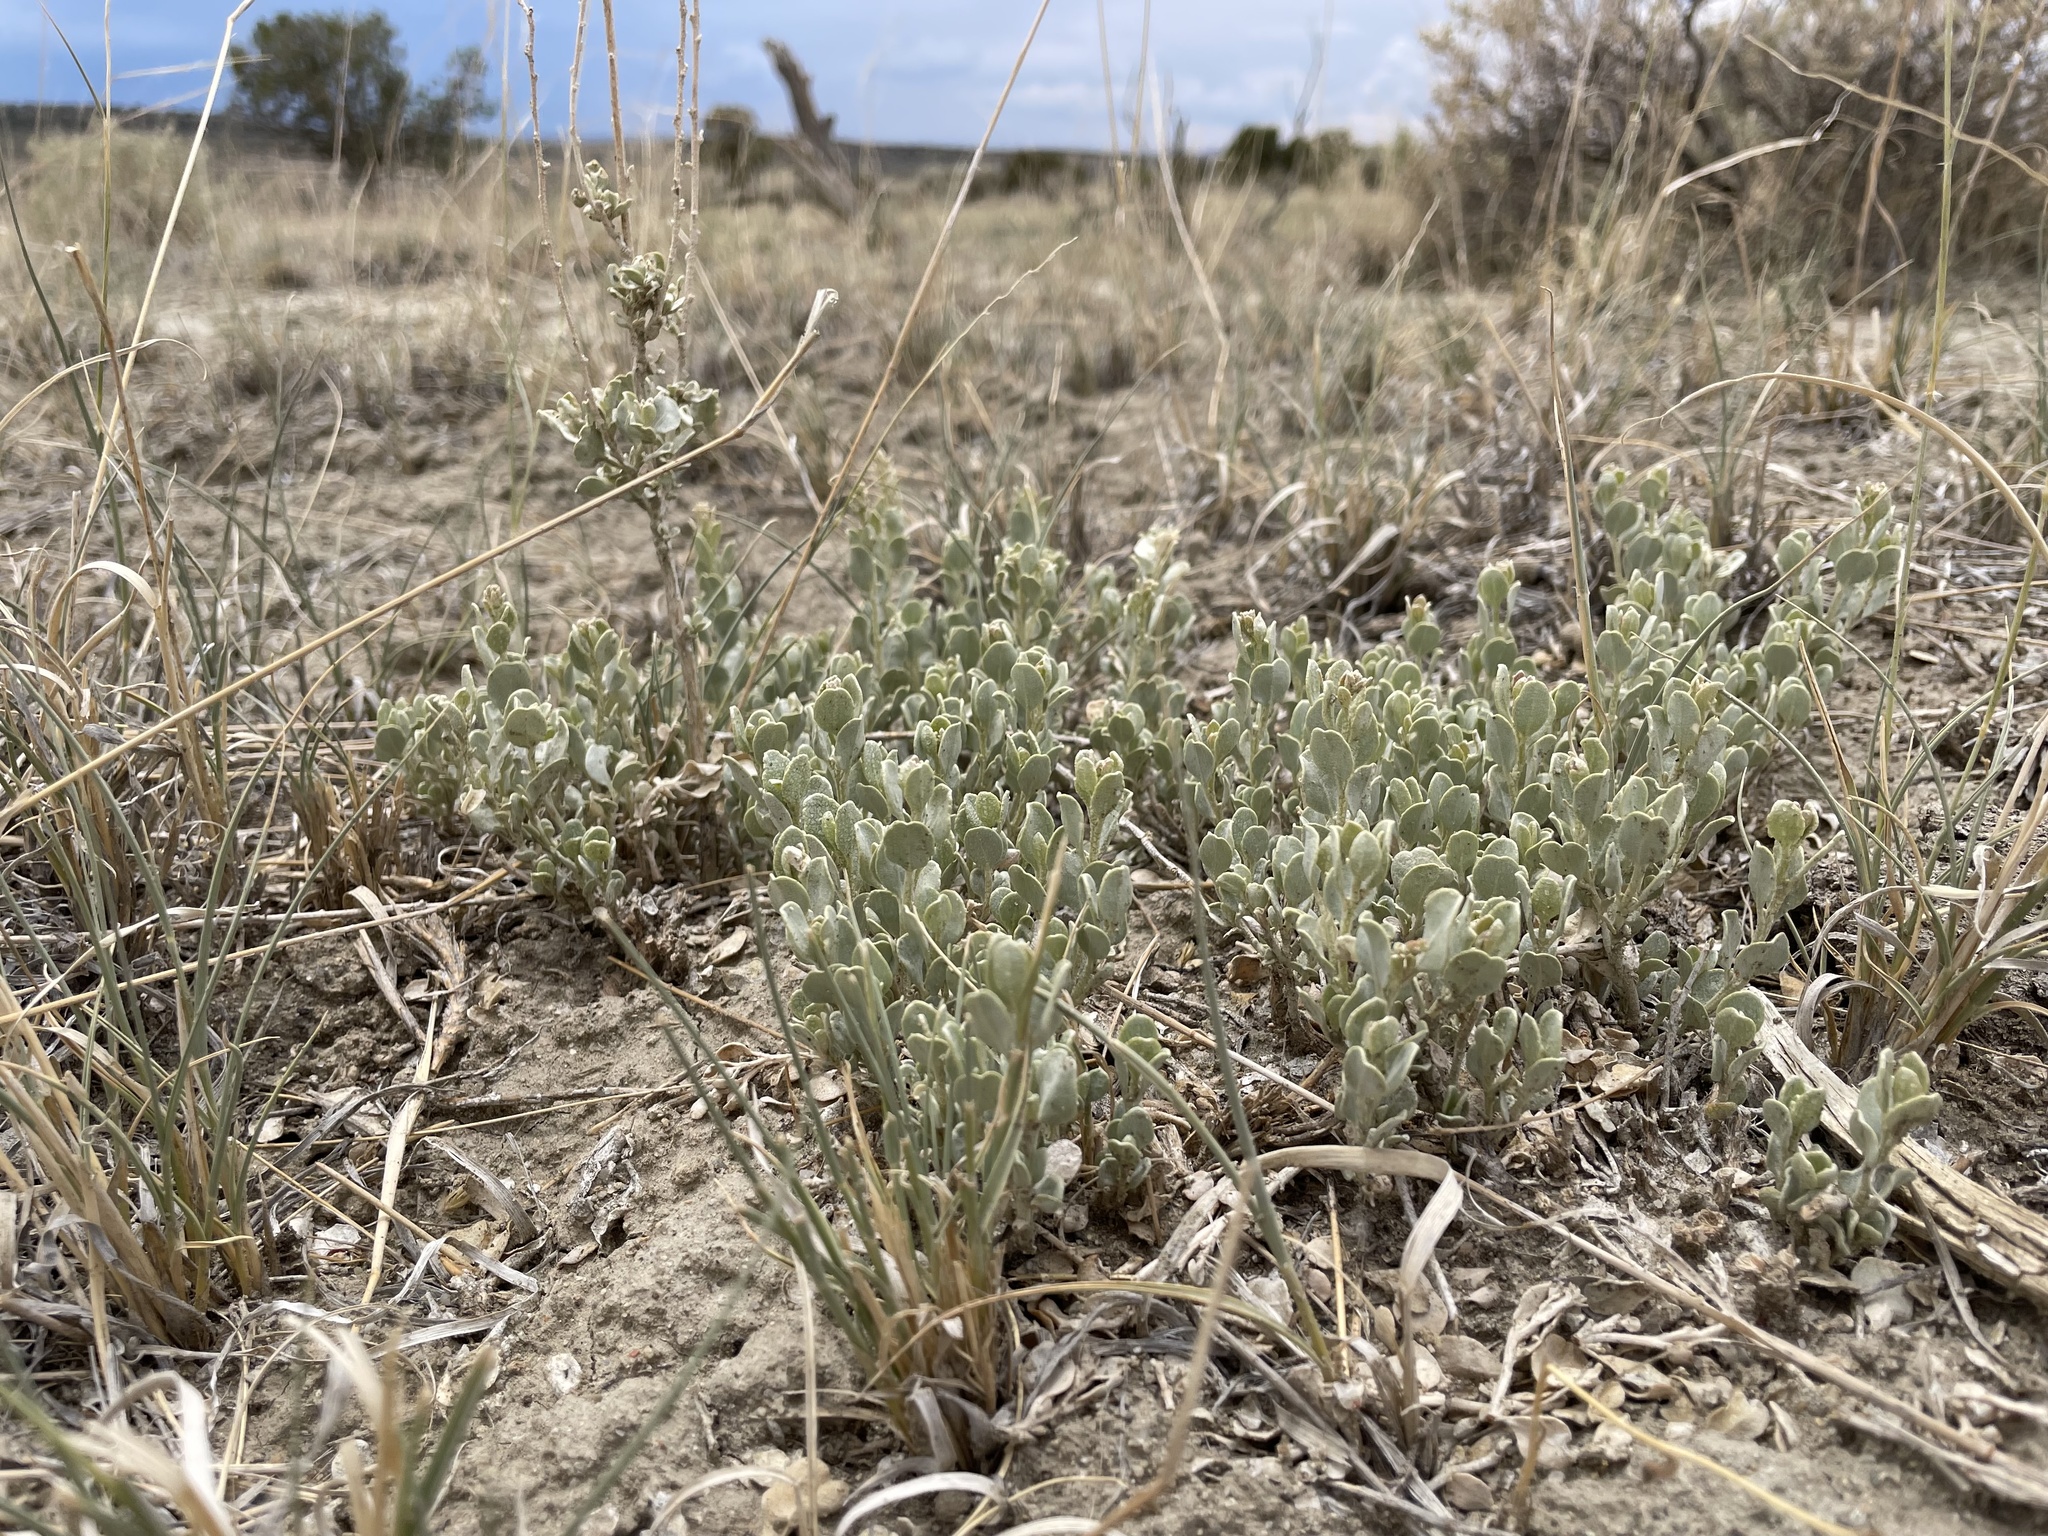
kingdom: Plantae
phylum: Tracheophyta
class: Magnoliopsida
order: Caryophyllales
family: Amaranthaceae
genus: Atriplex
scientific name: Atriplex obovata
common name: New mexico saltbush
